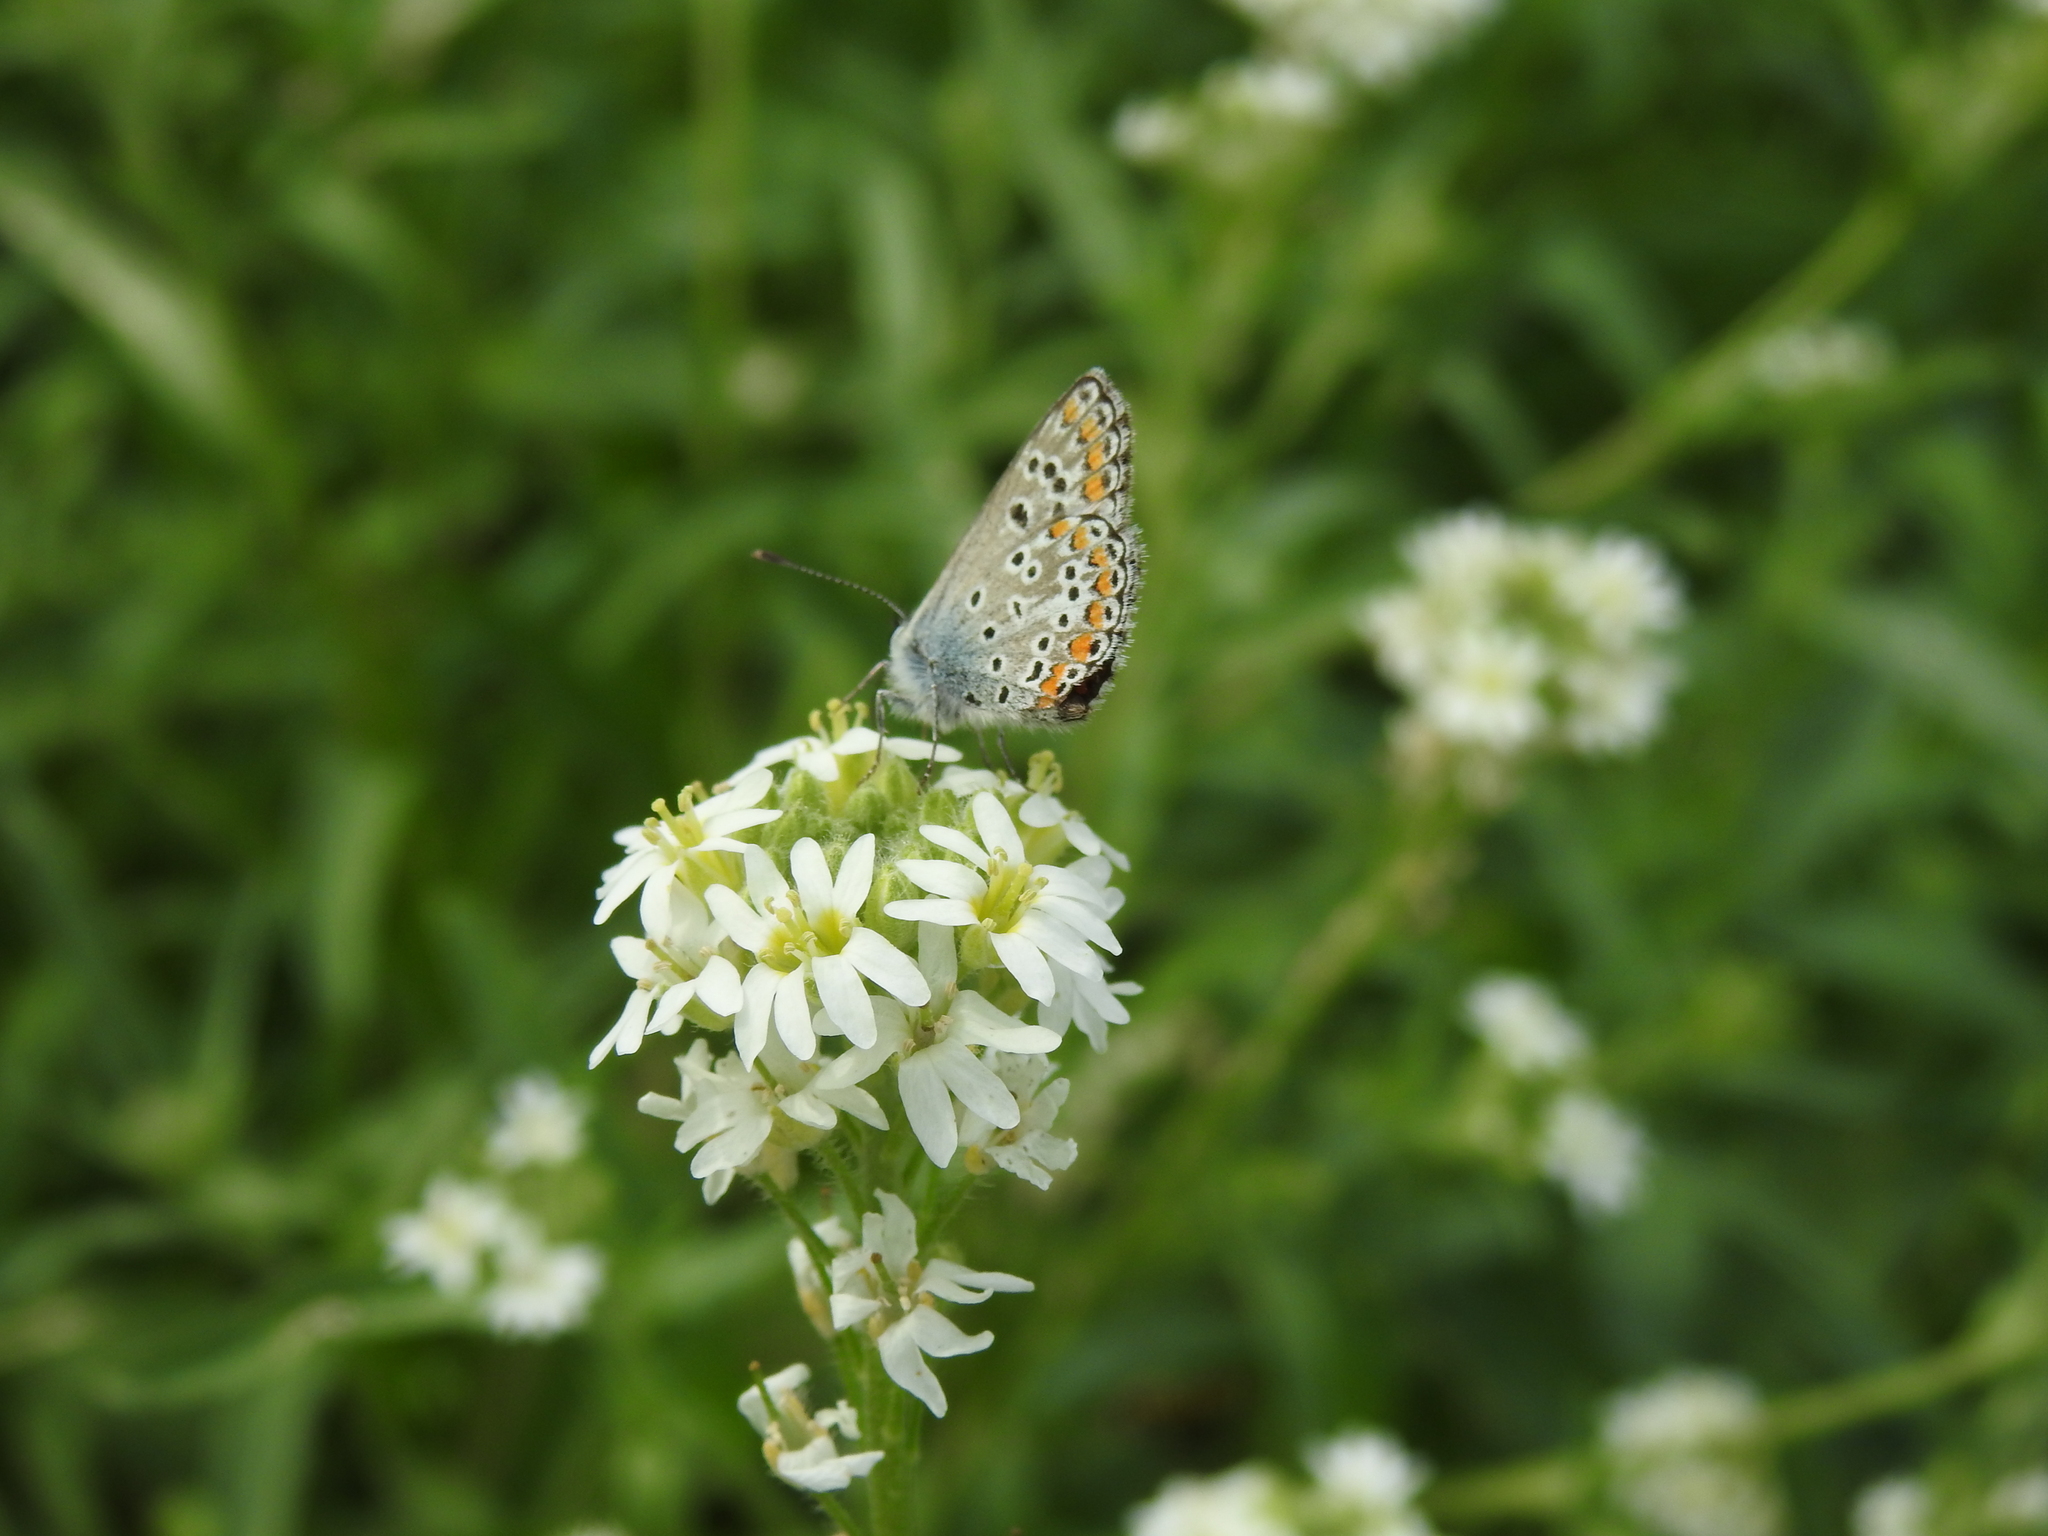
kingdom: Animalia
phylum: Arthropoda
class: Insecta
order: Lepidoptera
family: Lycaenidae
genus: Aricia
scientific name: Aricia agestis
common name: Brown argus
